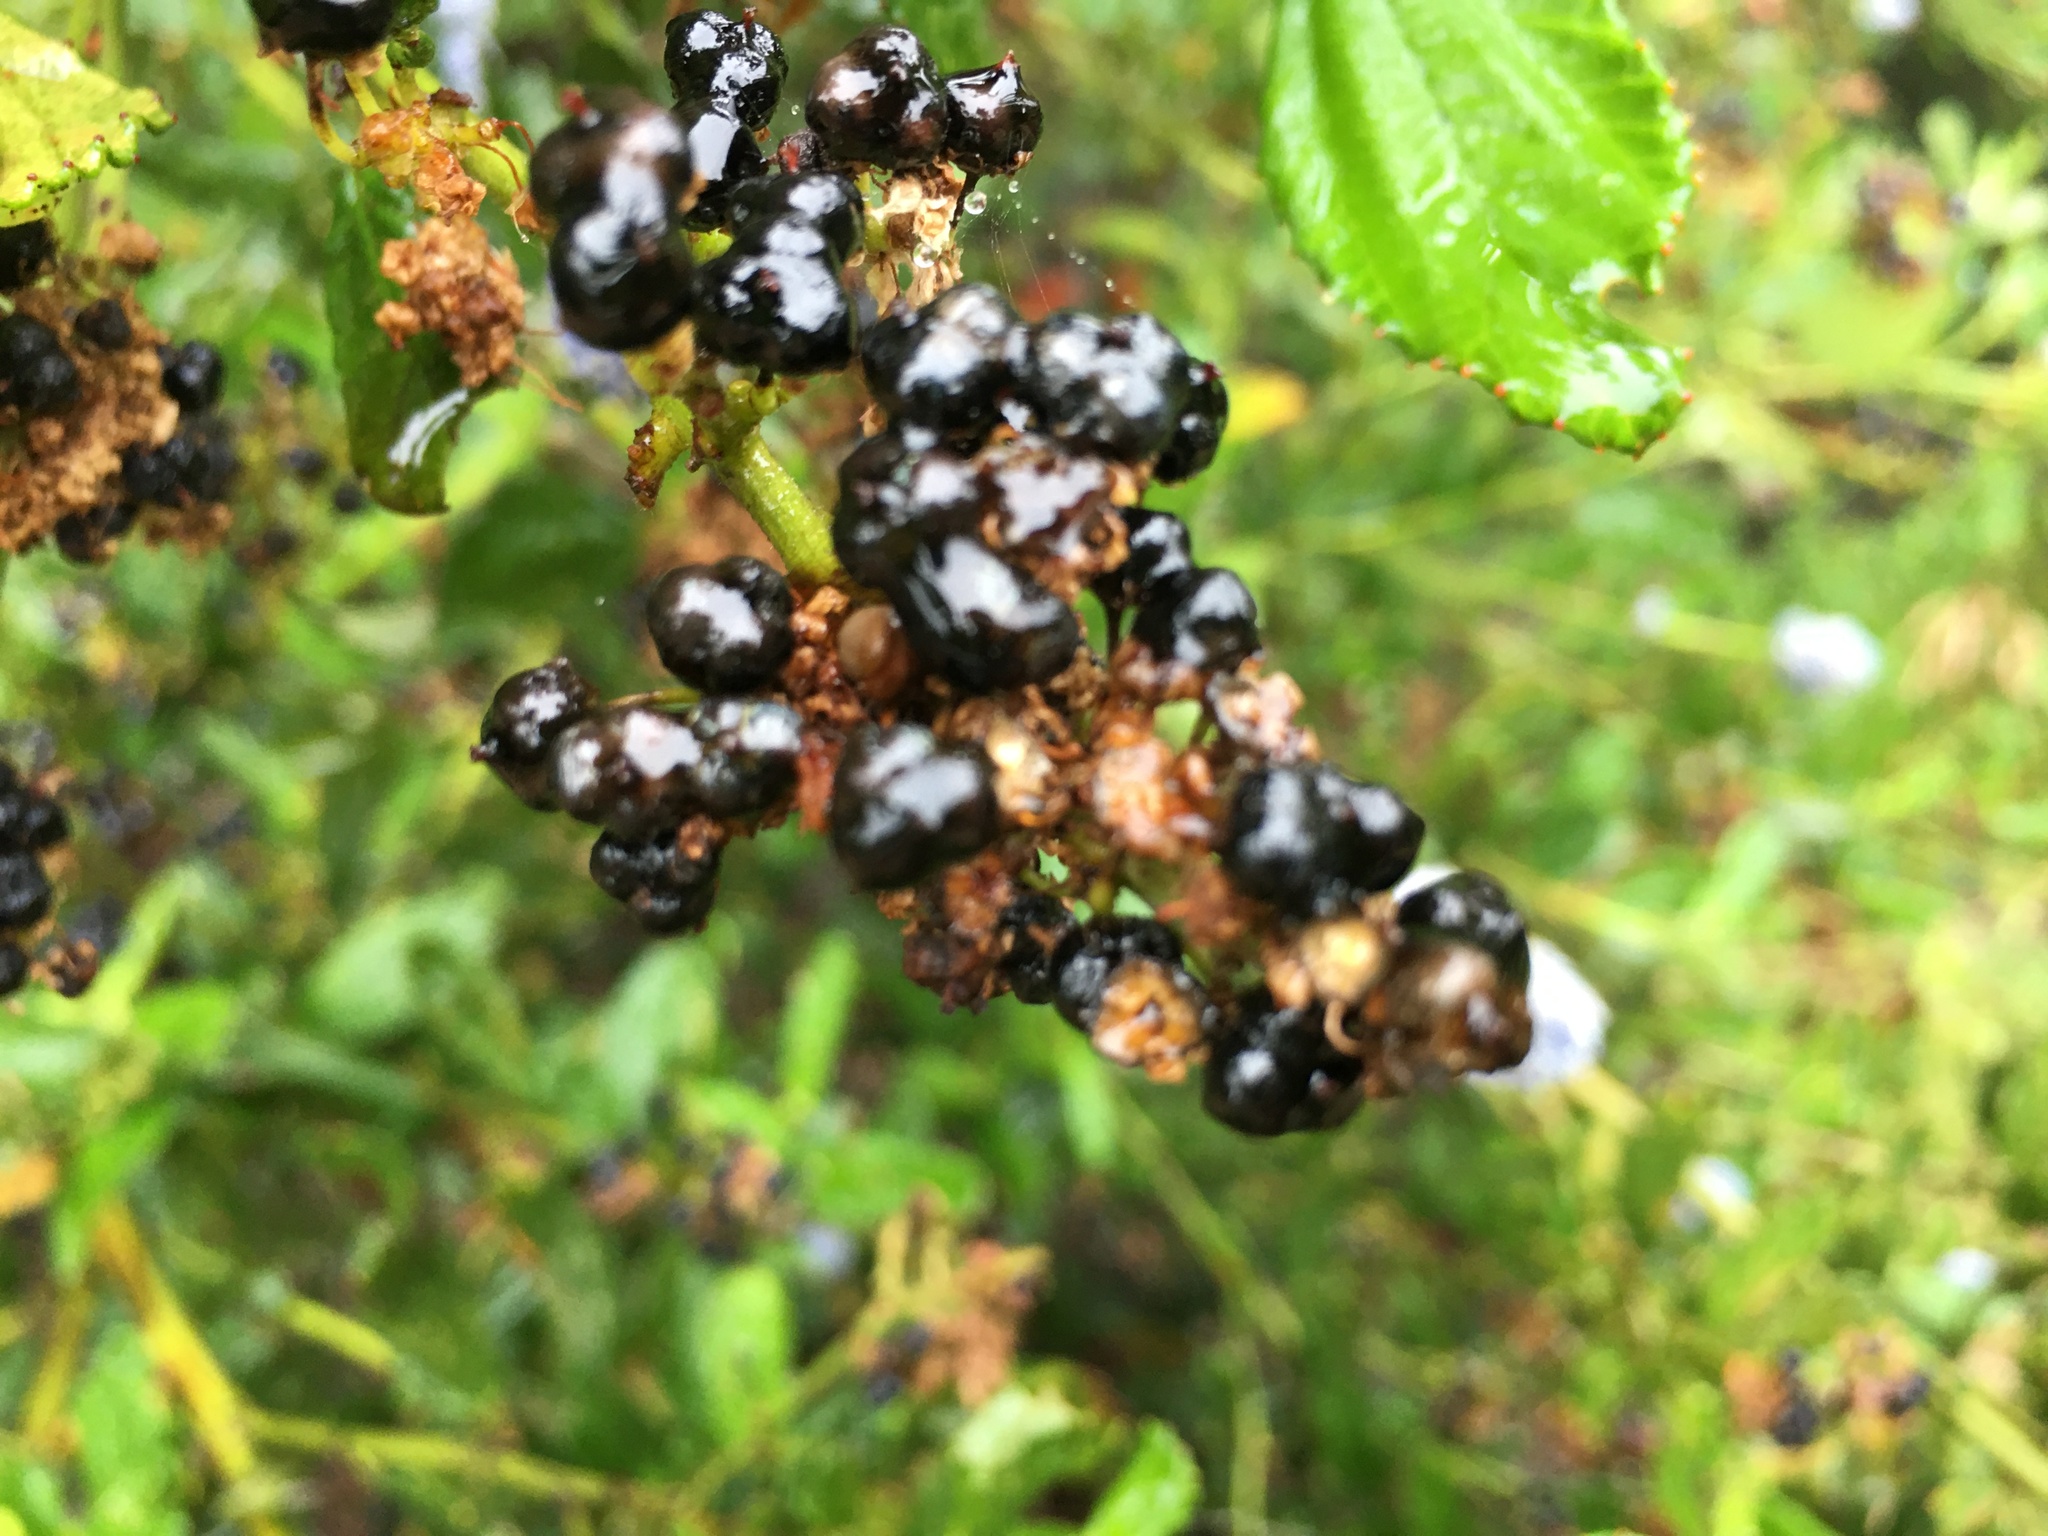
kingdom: Plantae
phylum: Tracheophyta
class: Magnoliopsida
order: Rosales
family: Rhamnaceae
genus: Ceanothus
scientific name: Ceanothus thyrsiflorus
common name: California-lilac
